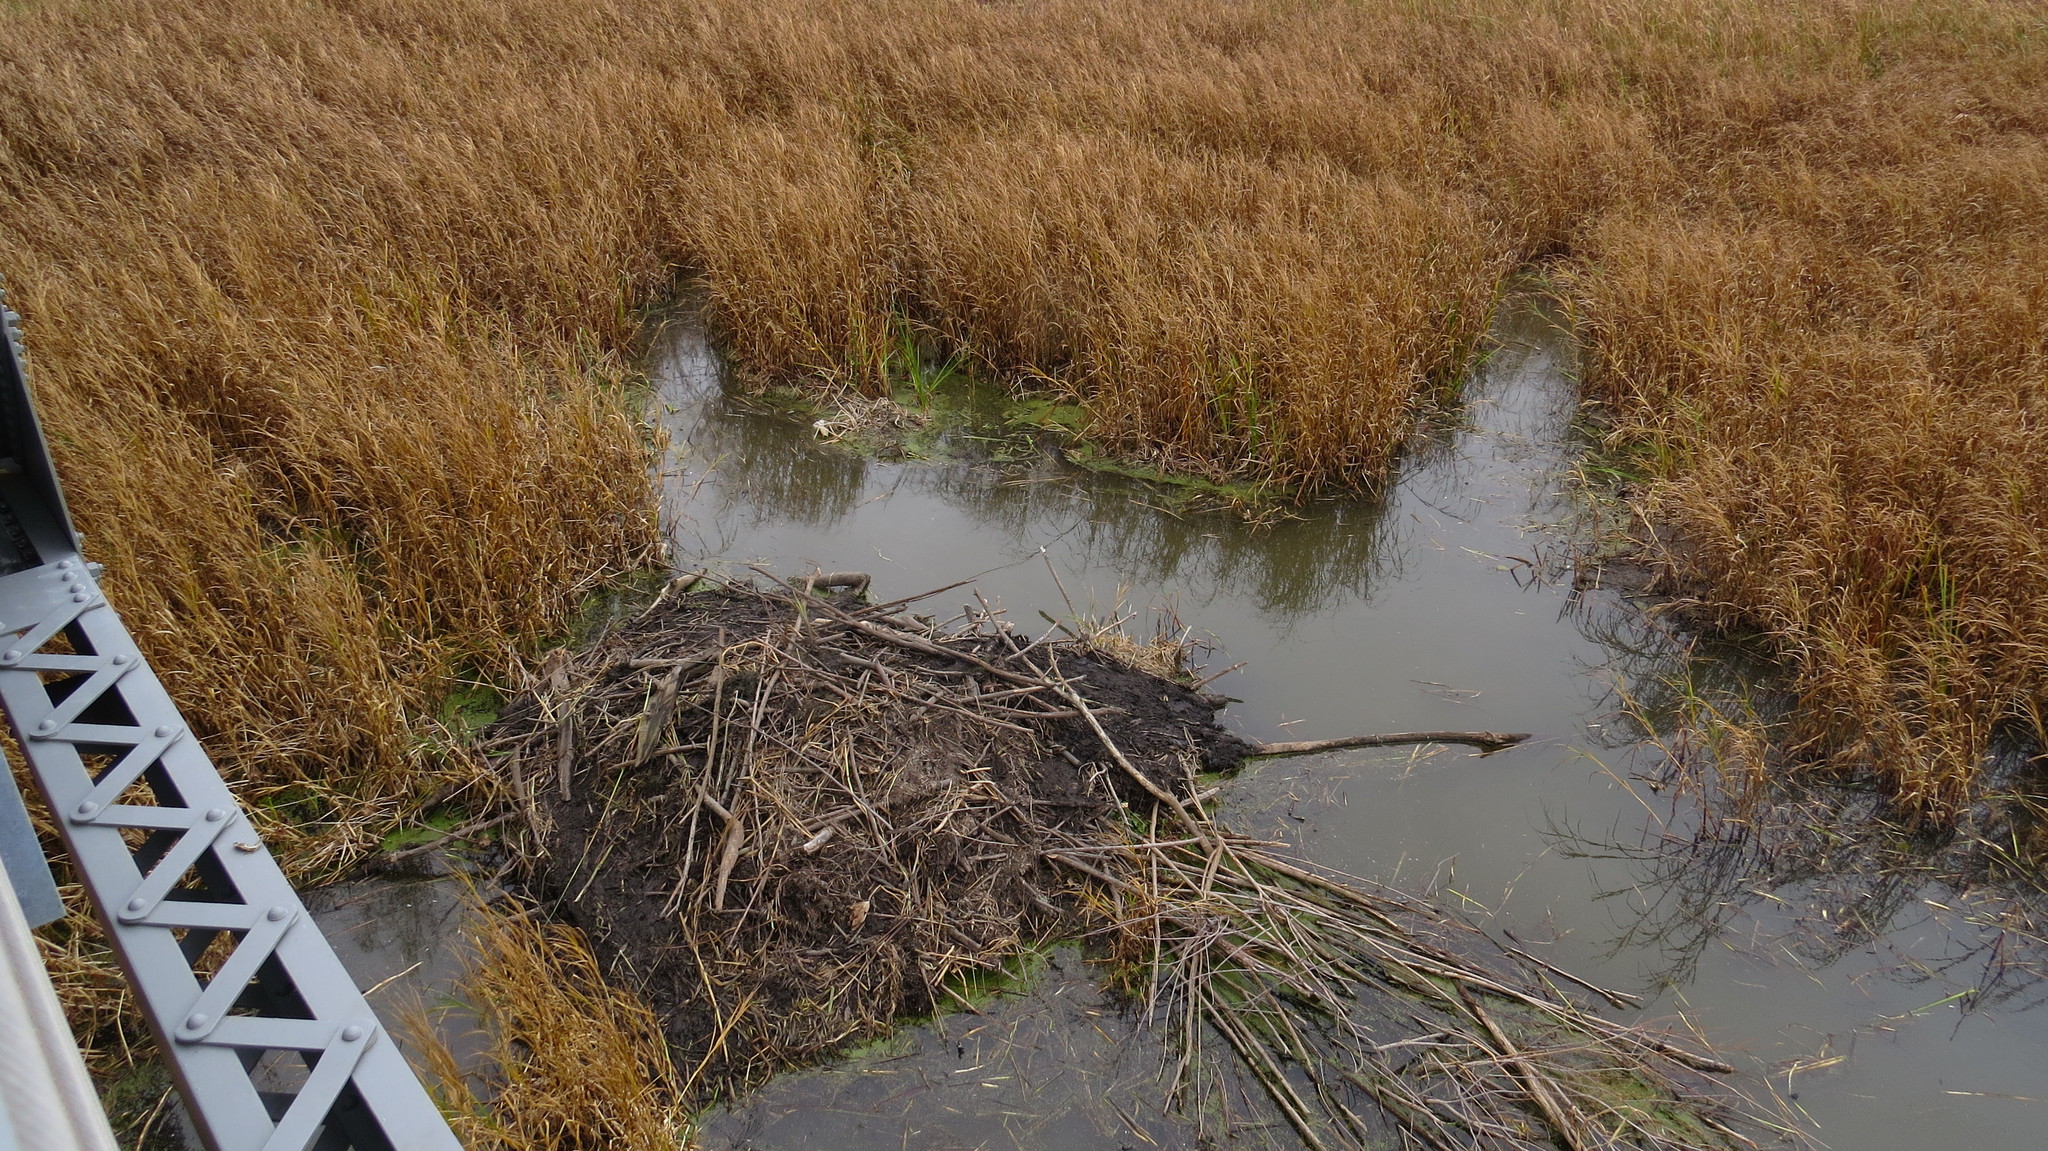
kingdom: Animalia
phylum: Chordata
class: Mammalia
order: Rodentia
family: Castoridae
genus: Castor
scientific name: Castor canadensis
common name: American beaver
